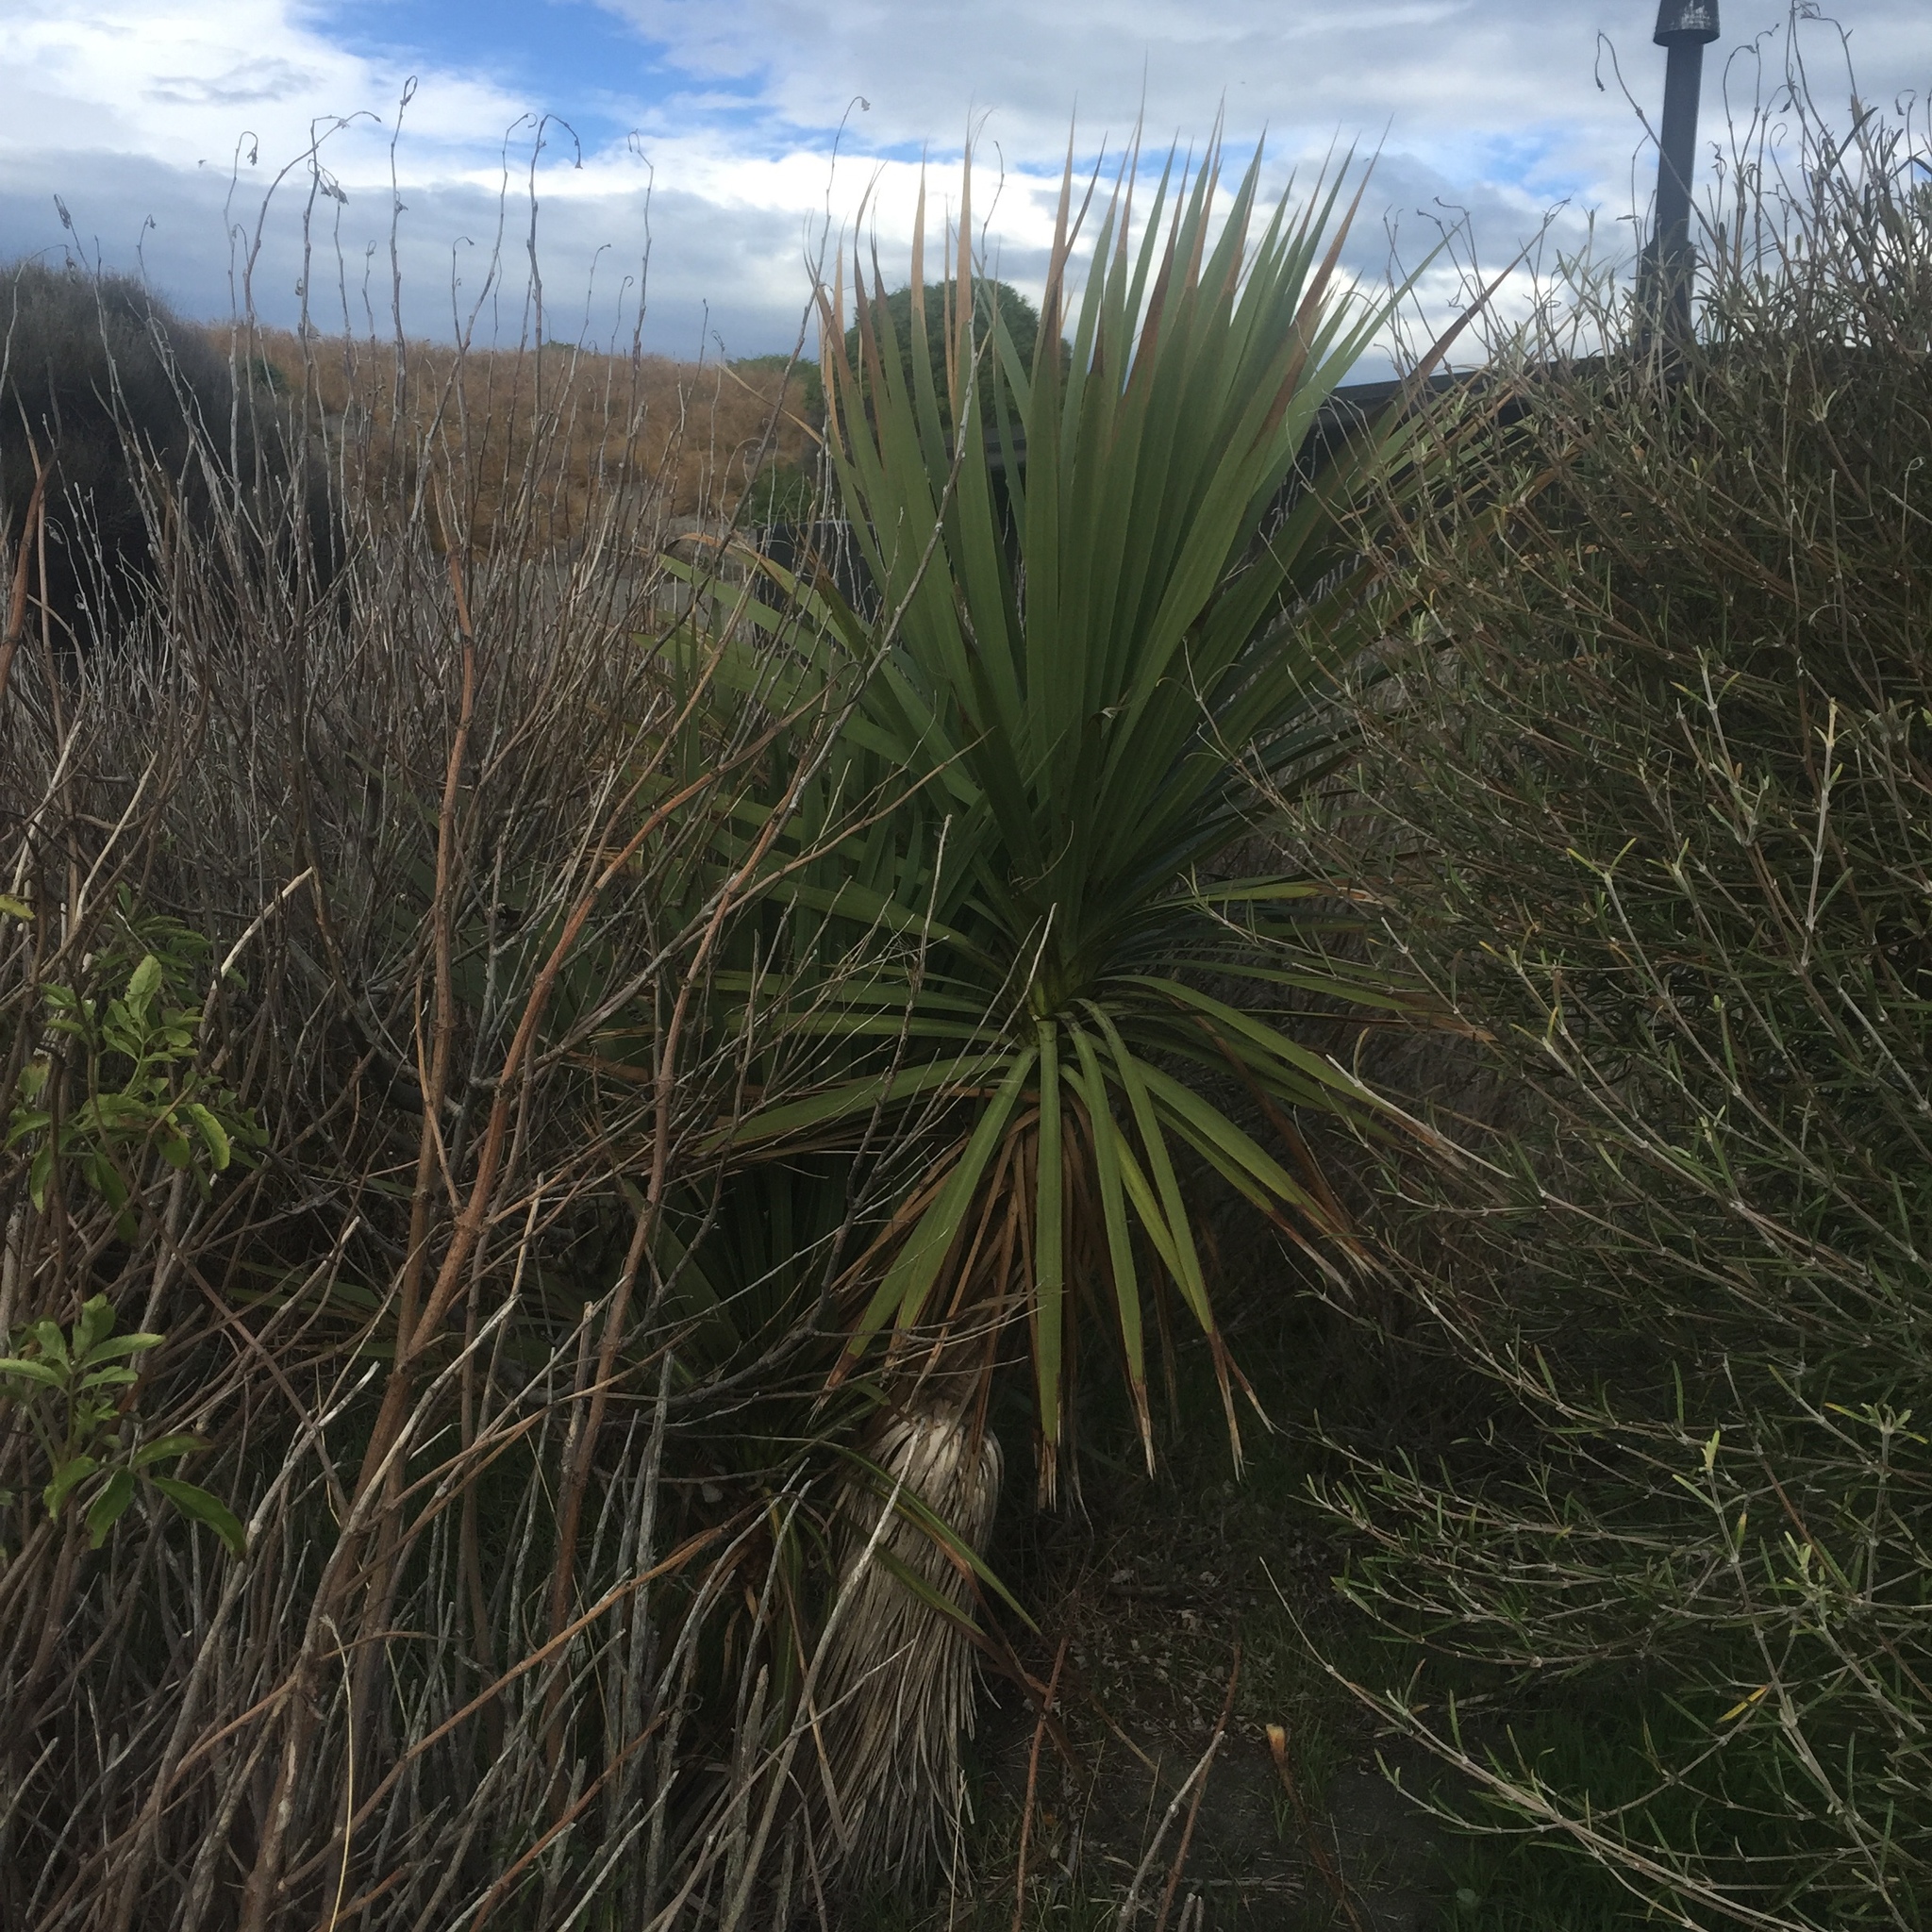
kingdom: Plantae
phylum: Tracheophyta
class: Liliopsida
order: Asparagales
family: Asparagaceae
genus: Cordyline
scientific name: Cordyline australis
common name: Cabbage-palm
